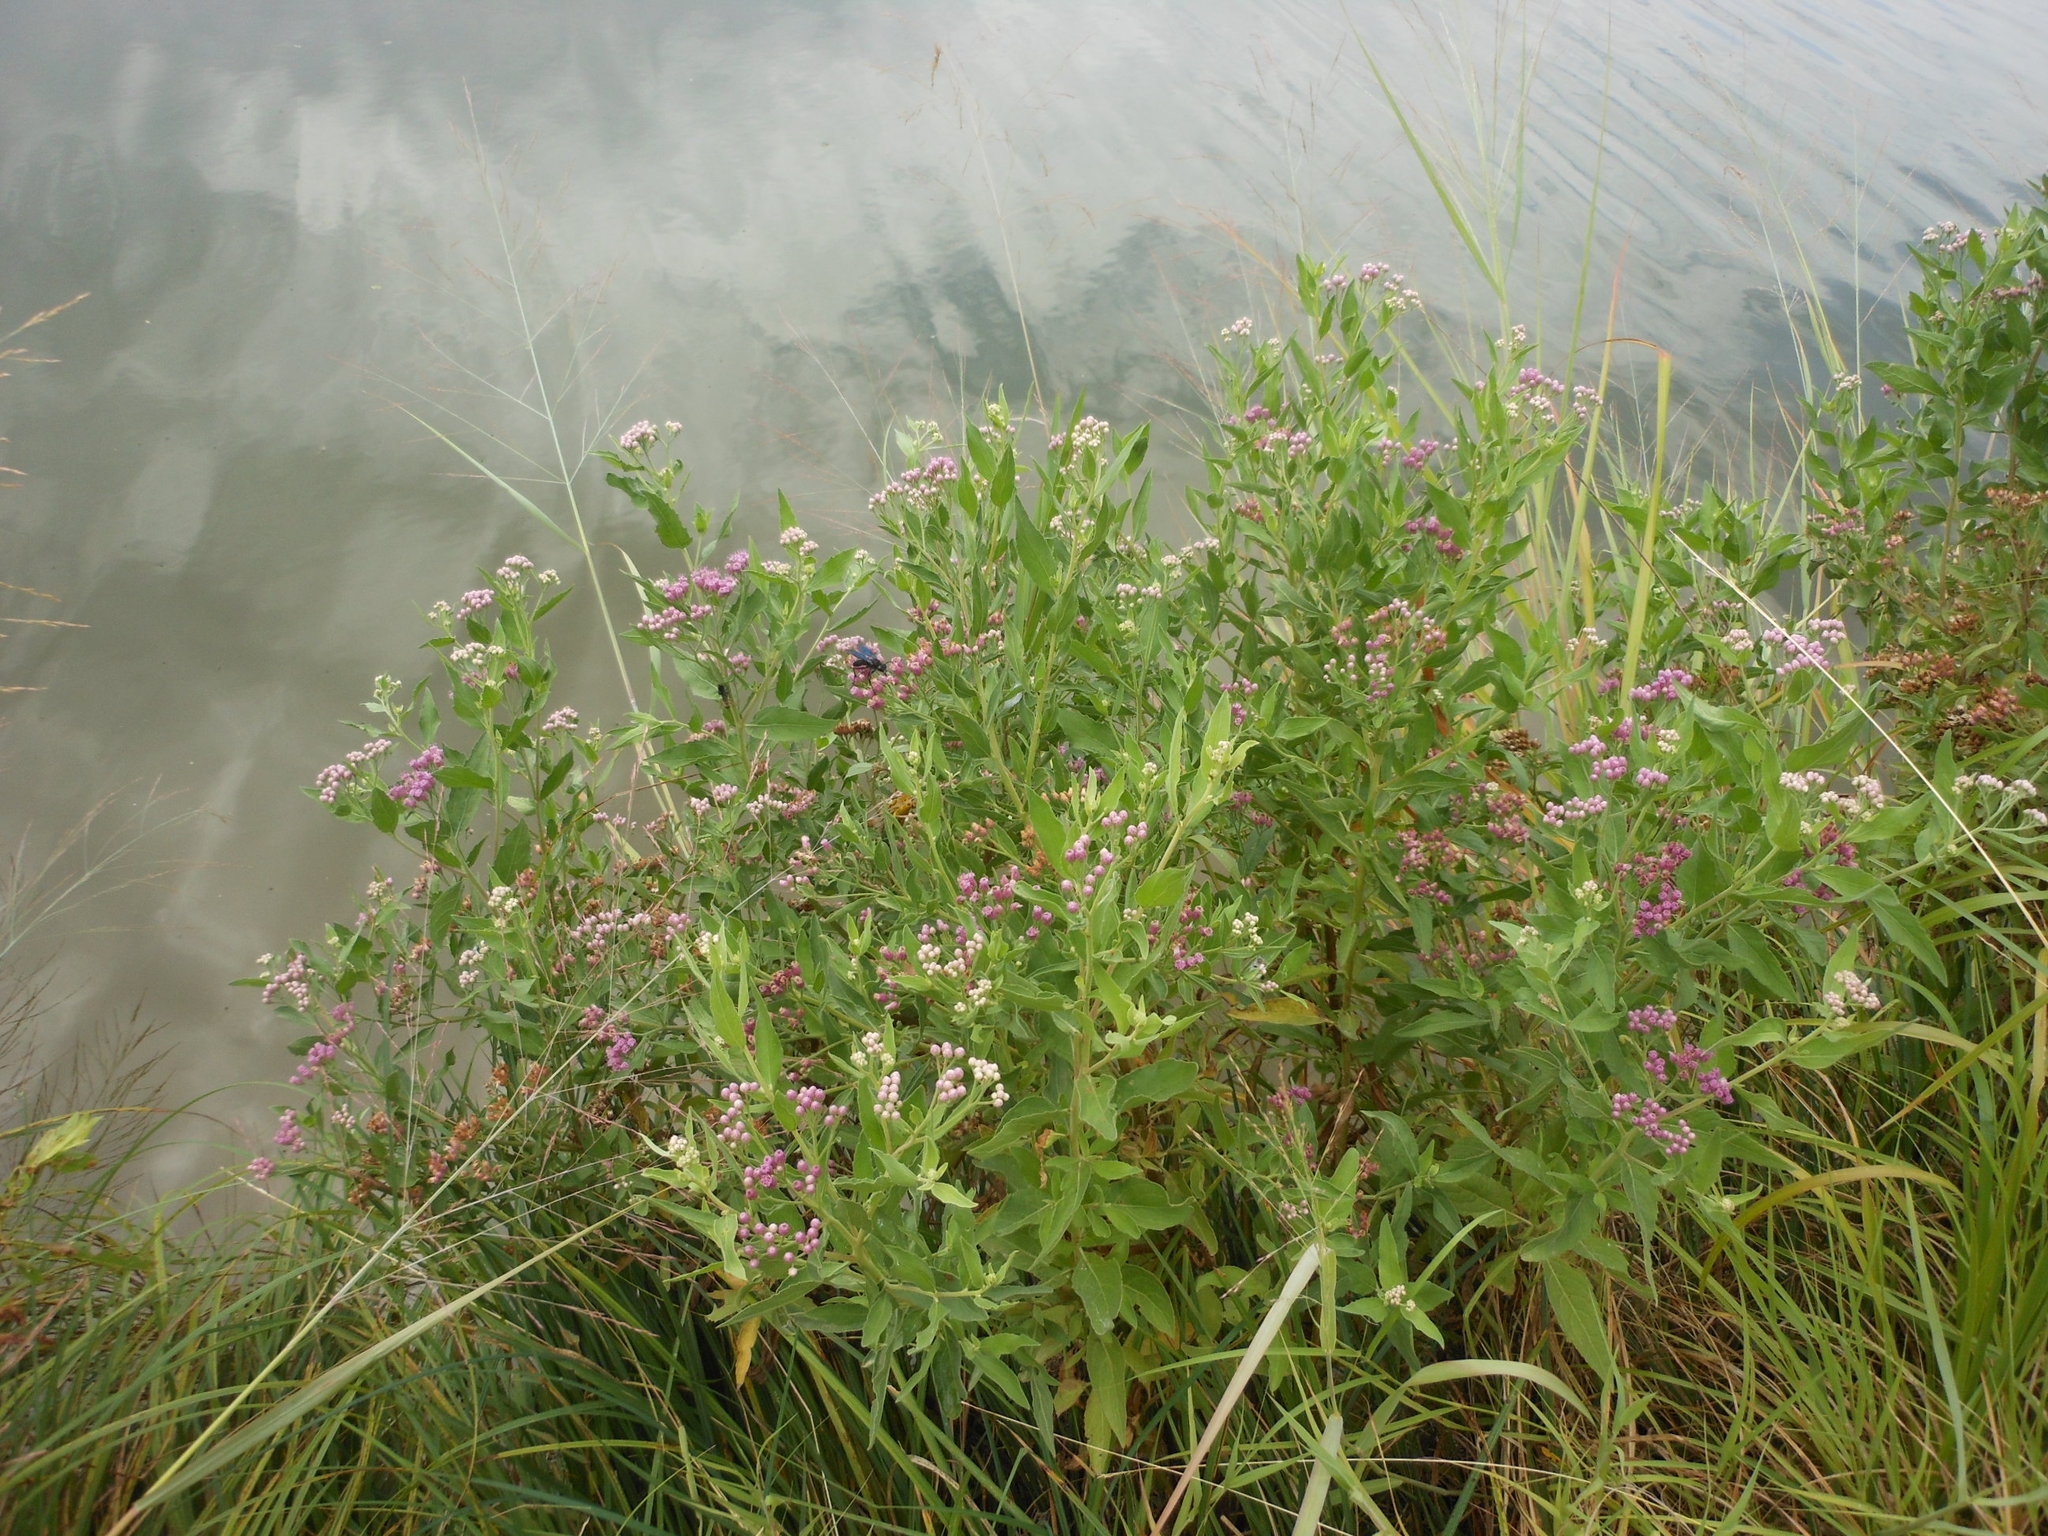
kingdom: Plantae
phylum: Tracheophyta
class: Magnoliopsida
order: Asterales
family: Asteraceae
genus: Pluchea
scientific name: Pluchea odorata
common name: Saltmarsh fleabane
